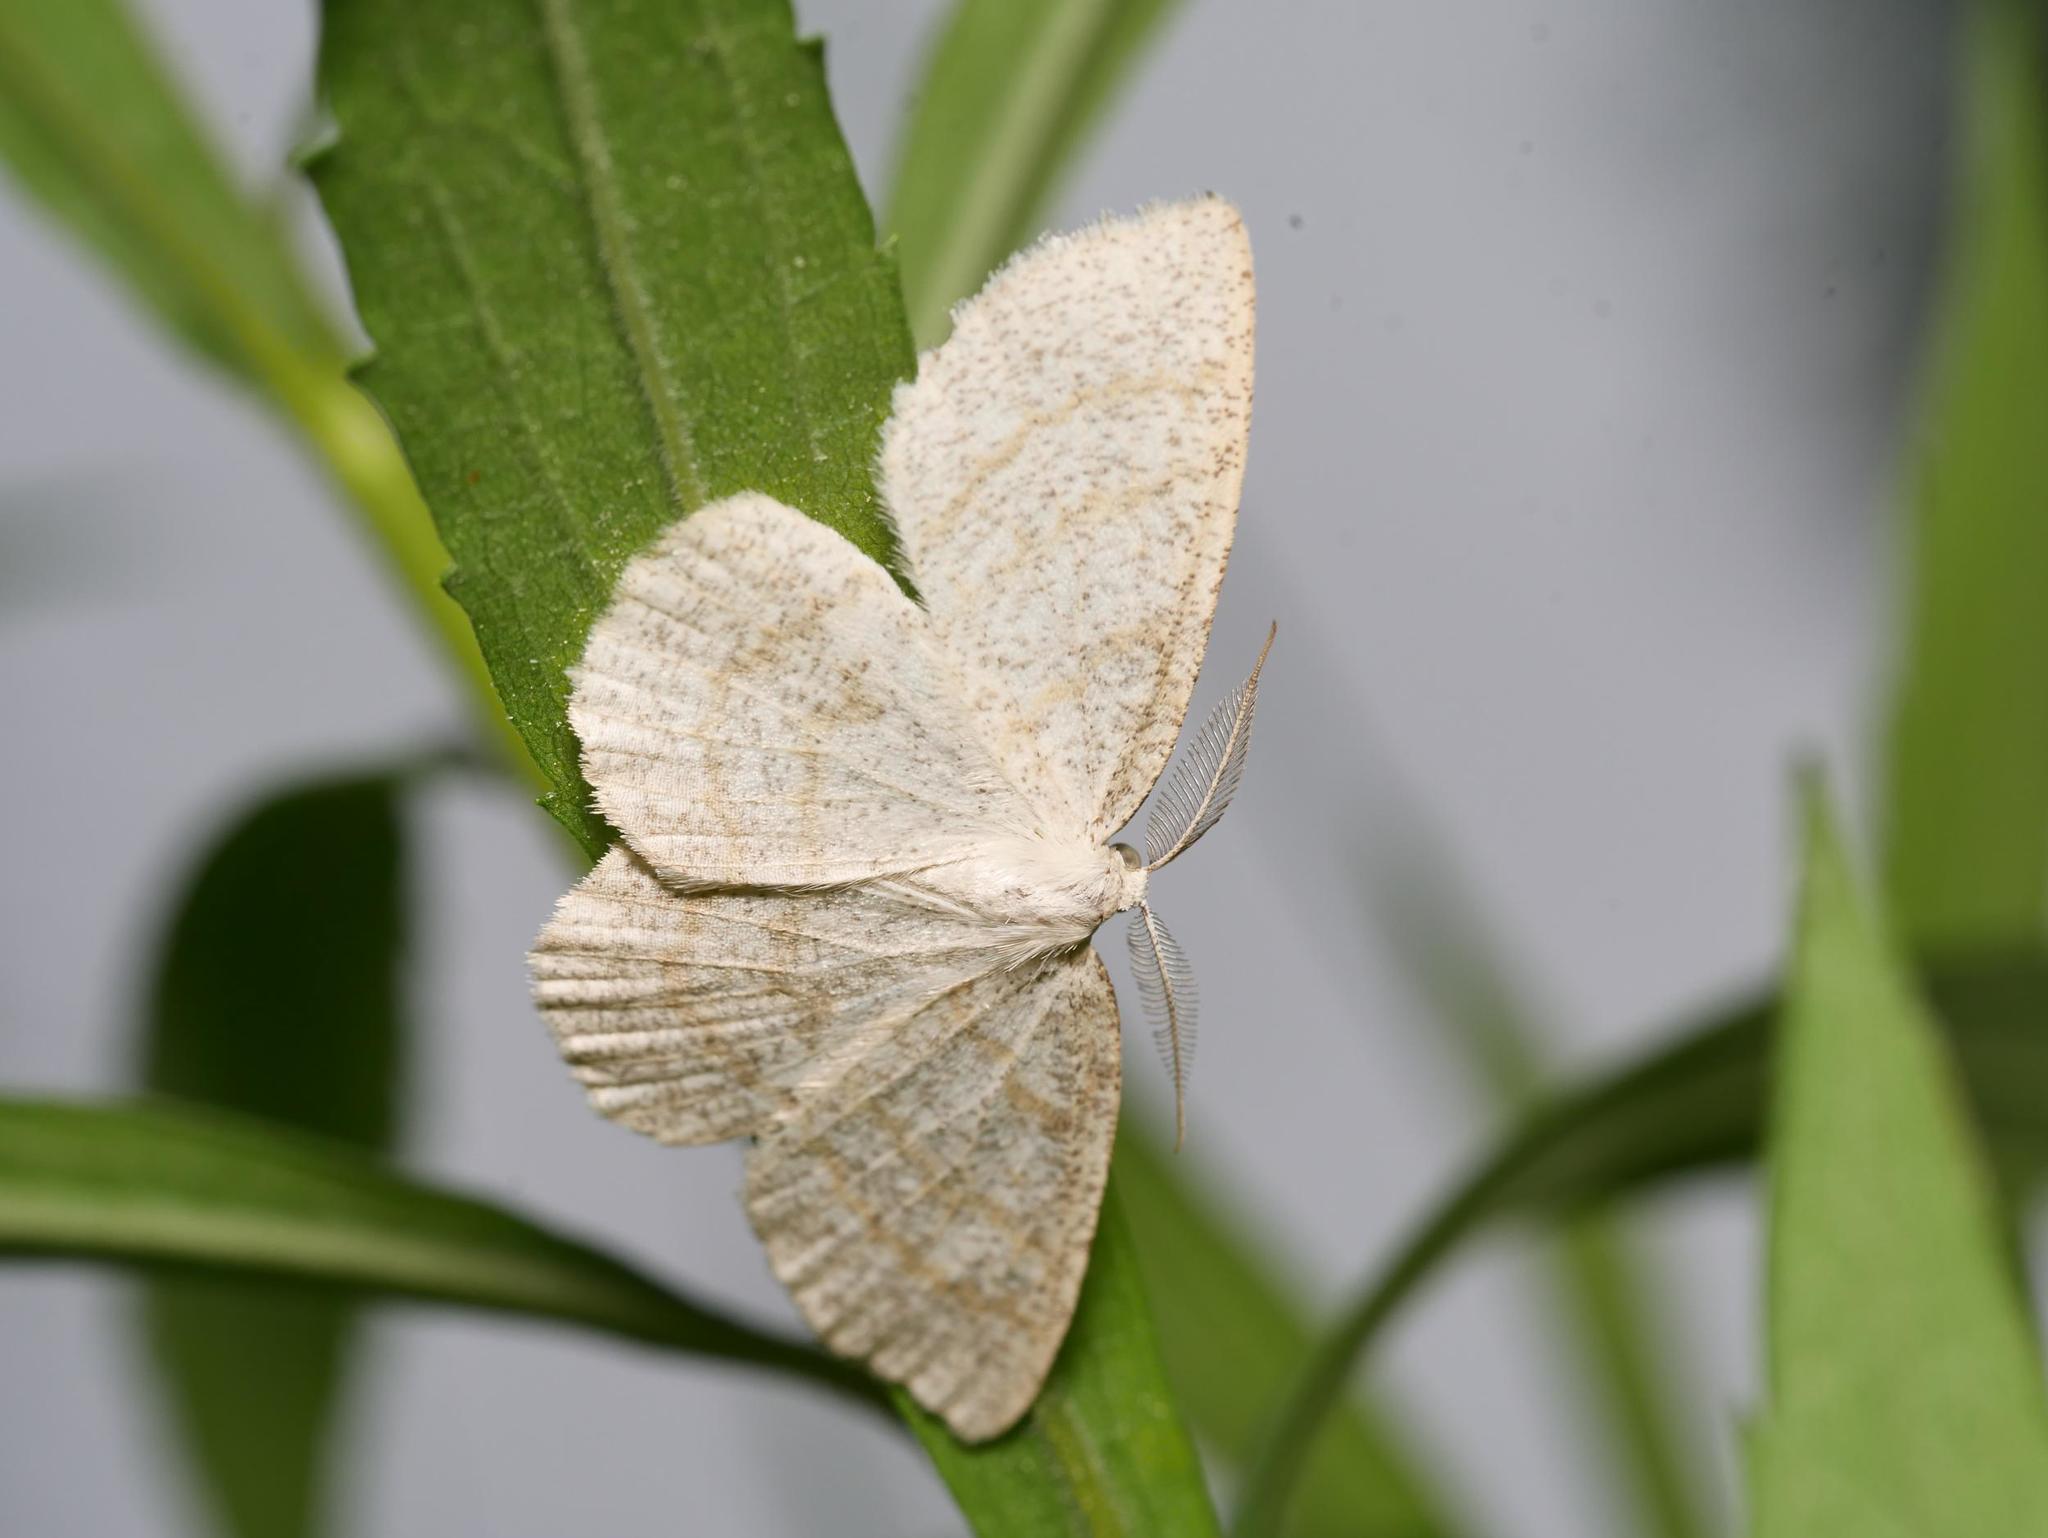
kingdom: Animalia
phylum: Arthropoda
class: Insecta
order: Lepidoptera
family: Geometridae
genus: Cabera
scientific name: Cabera exanthemata
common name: Common wave
